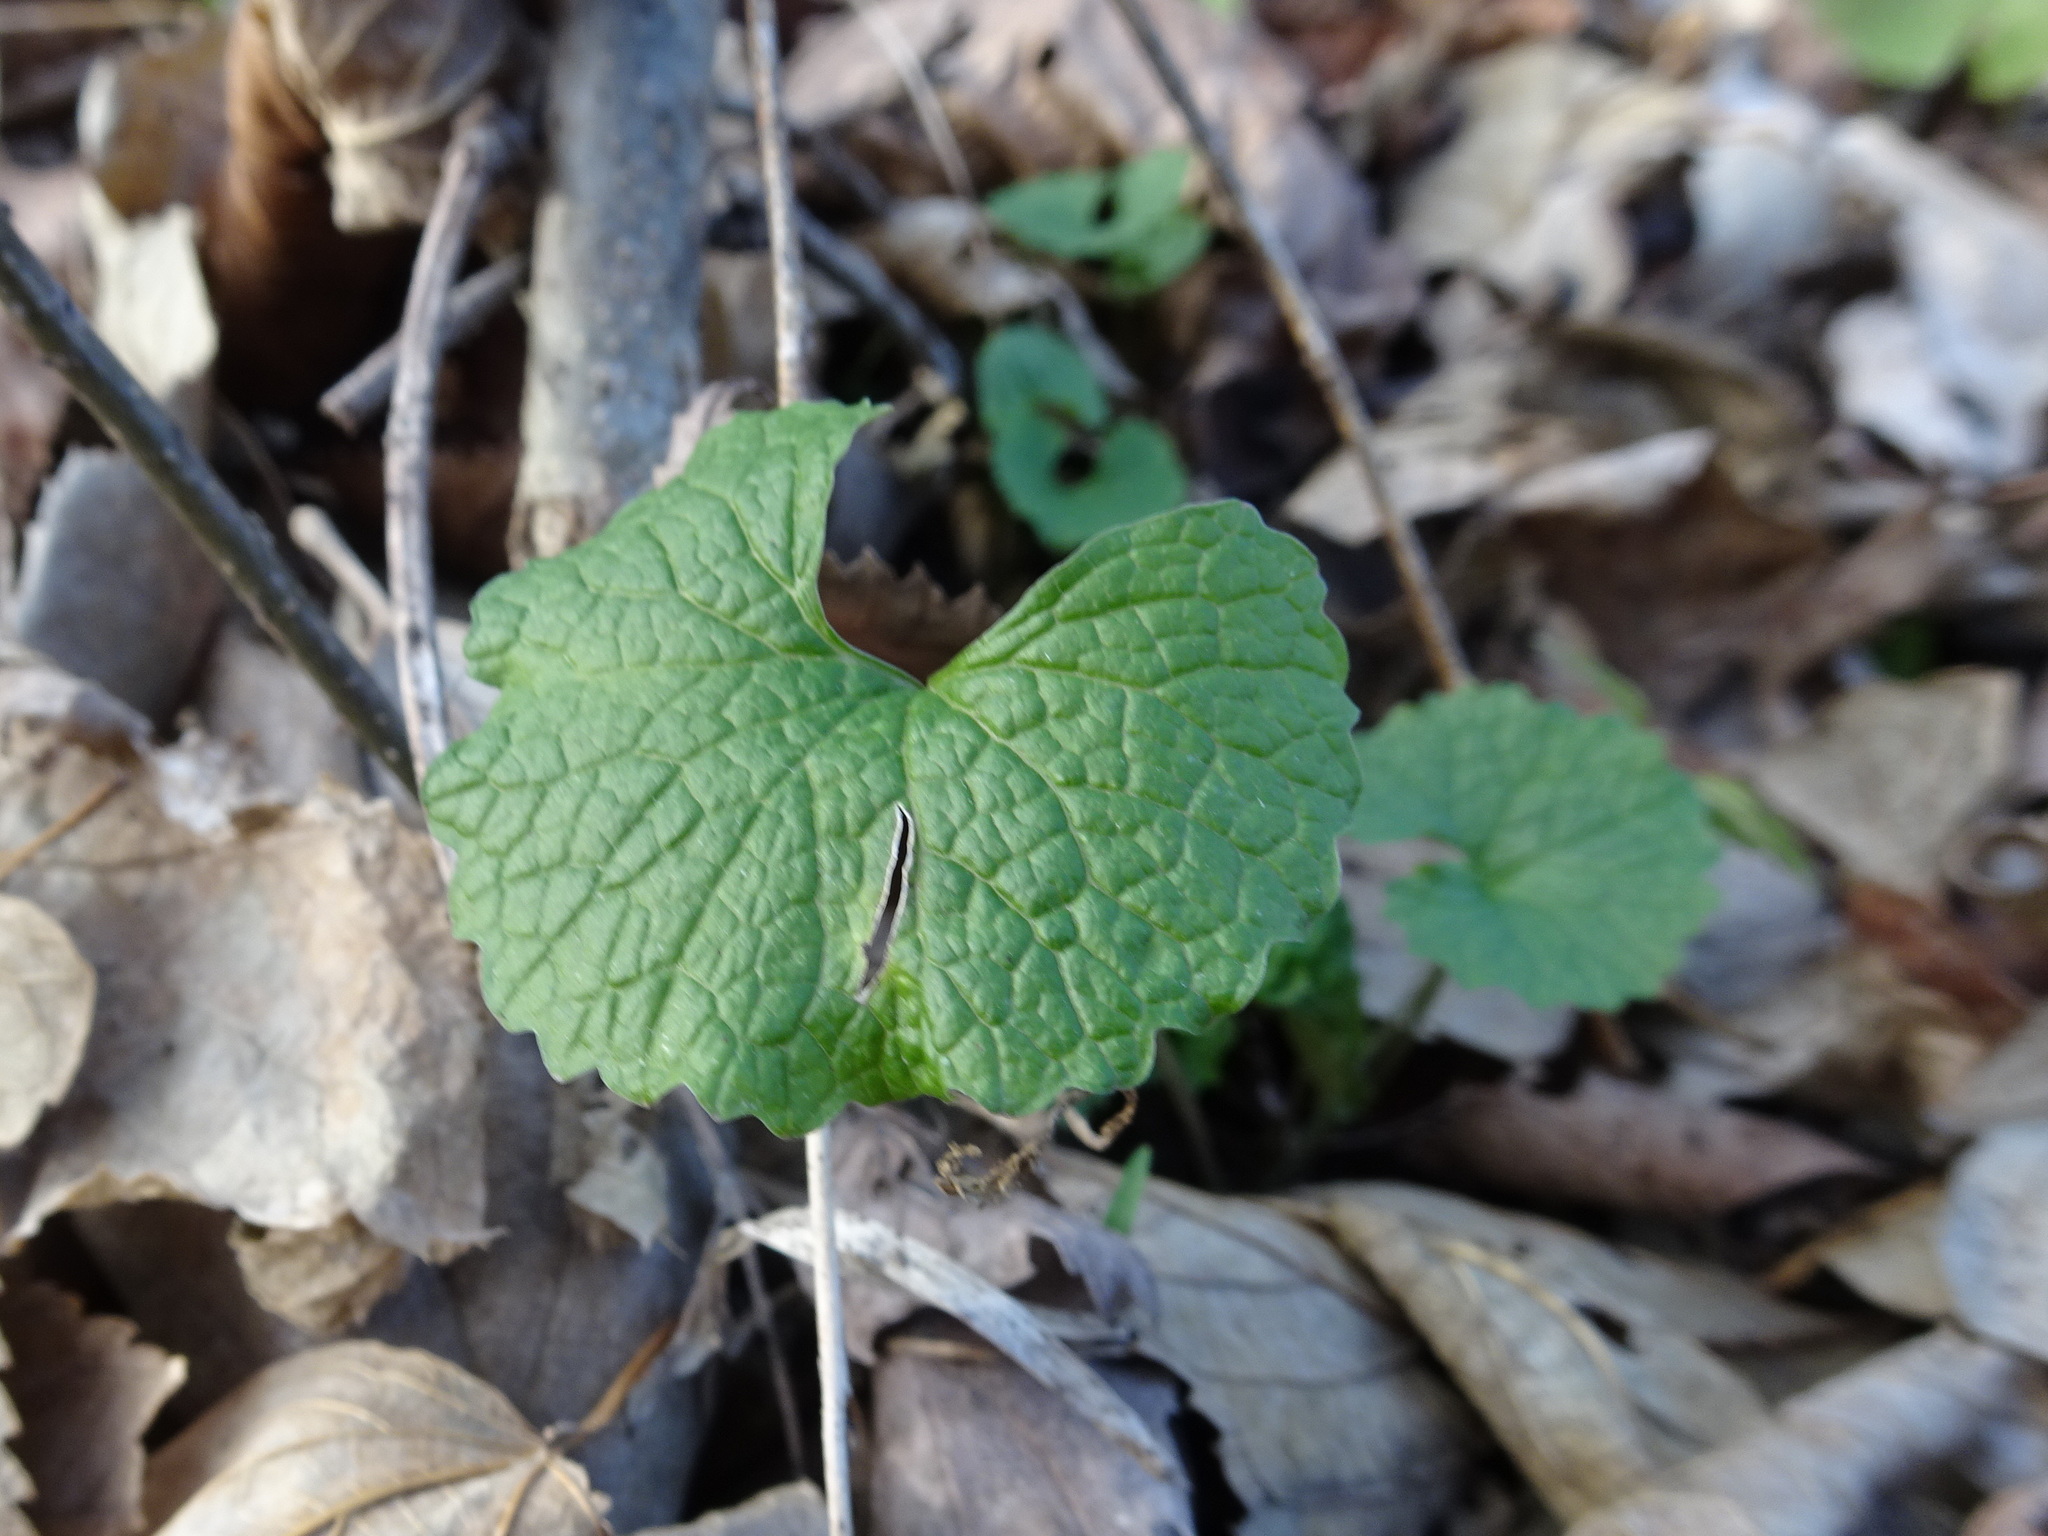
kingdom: Plantae
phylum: Tracheophyta
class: Magnoliopsida
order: Brassicales
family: Brassicaceae
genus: Alliaria
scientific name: Alliaria petiolata
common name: Garlic mustard
